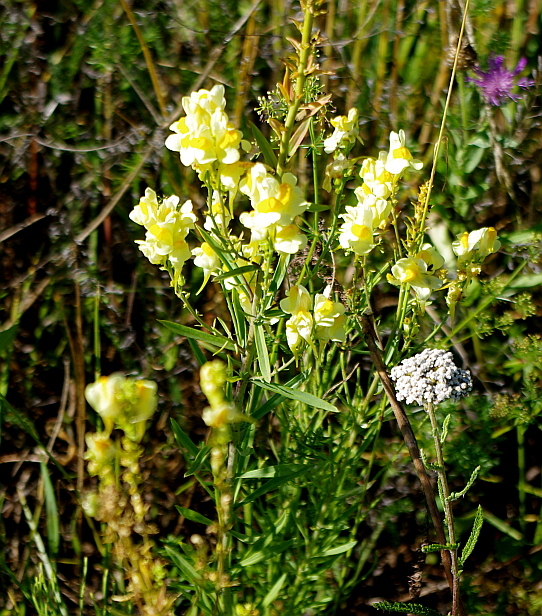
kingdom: Plantae
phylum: Tracheophyta
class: Magnoliopsida
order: Lamiales
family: Plantaginaceae
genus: Linaria
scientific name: Linaria vulgaris
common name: Butter and eggs
